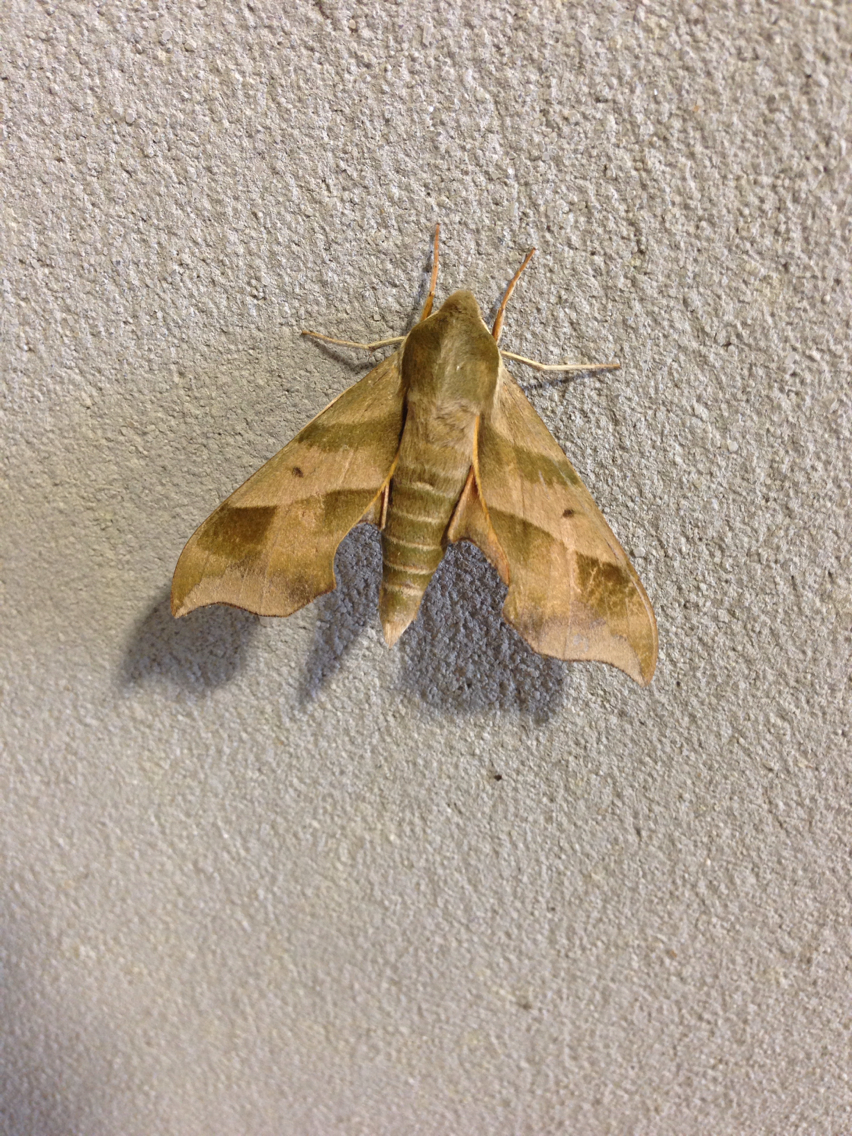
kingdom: Animalia
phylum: Arthropoda
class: Insecta
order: Lepidoptera
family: Sphingidae
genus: Darapsa
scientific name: Darapsa myron
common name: Hog sphinx
